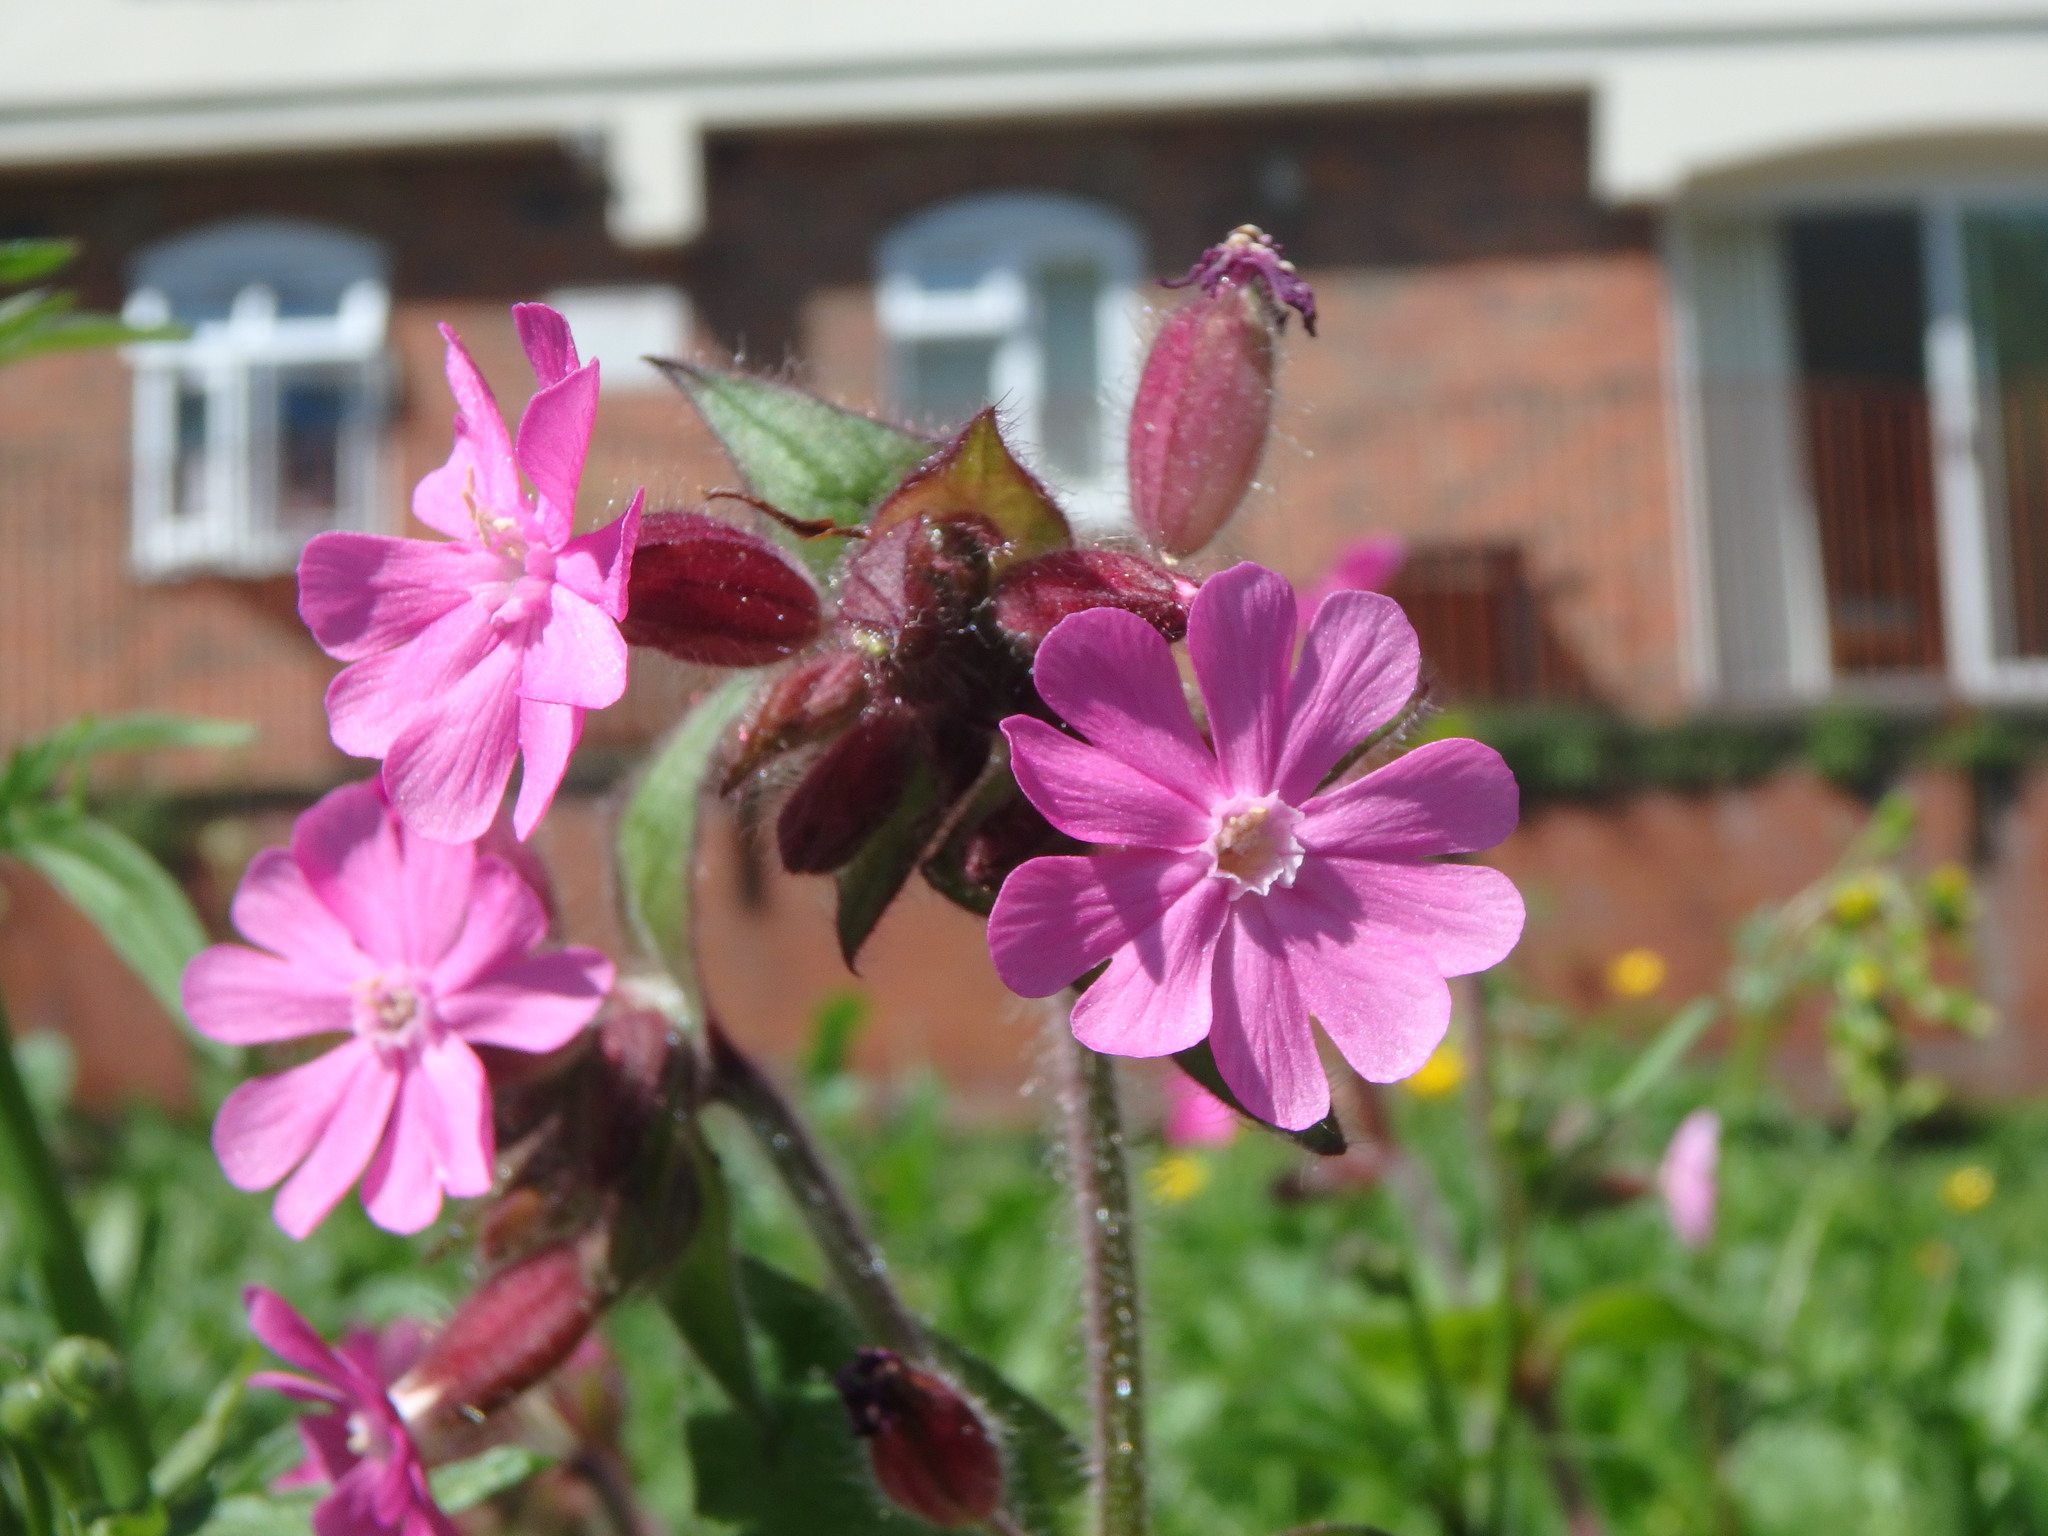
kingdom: Plantae
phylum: Tracheophyta
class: Magnoliopsida
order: Caryophyllales
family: Caryophyllaceae
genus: Silene
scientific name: Silene dioica
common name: Red campion
